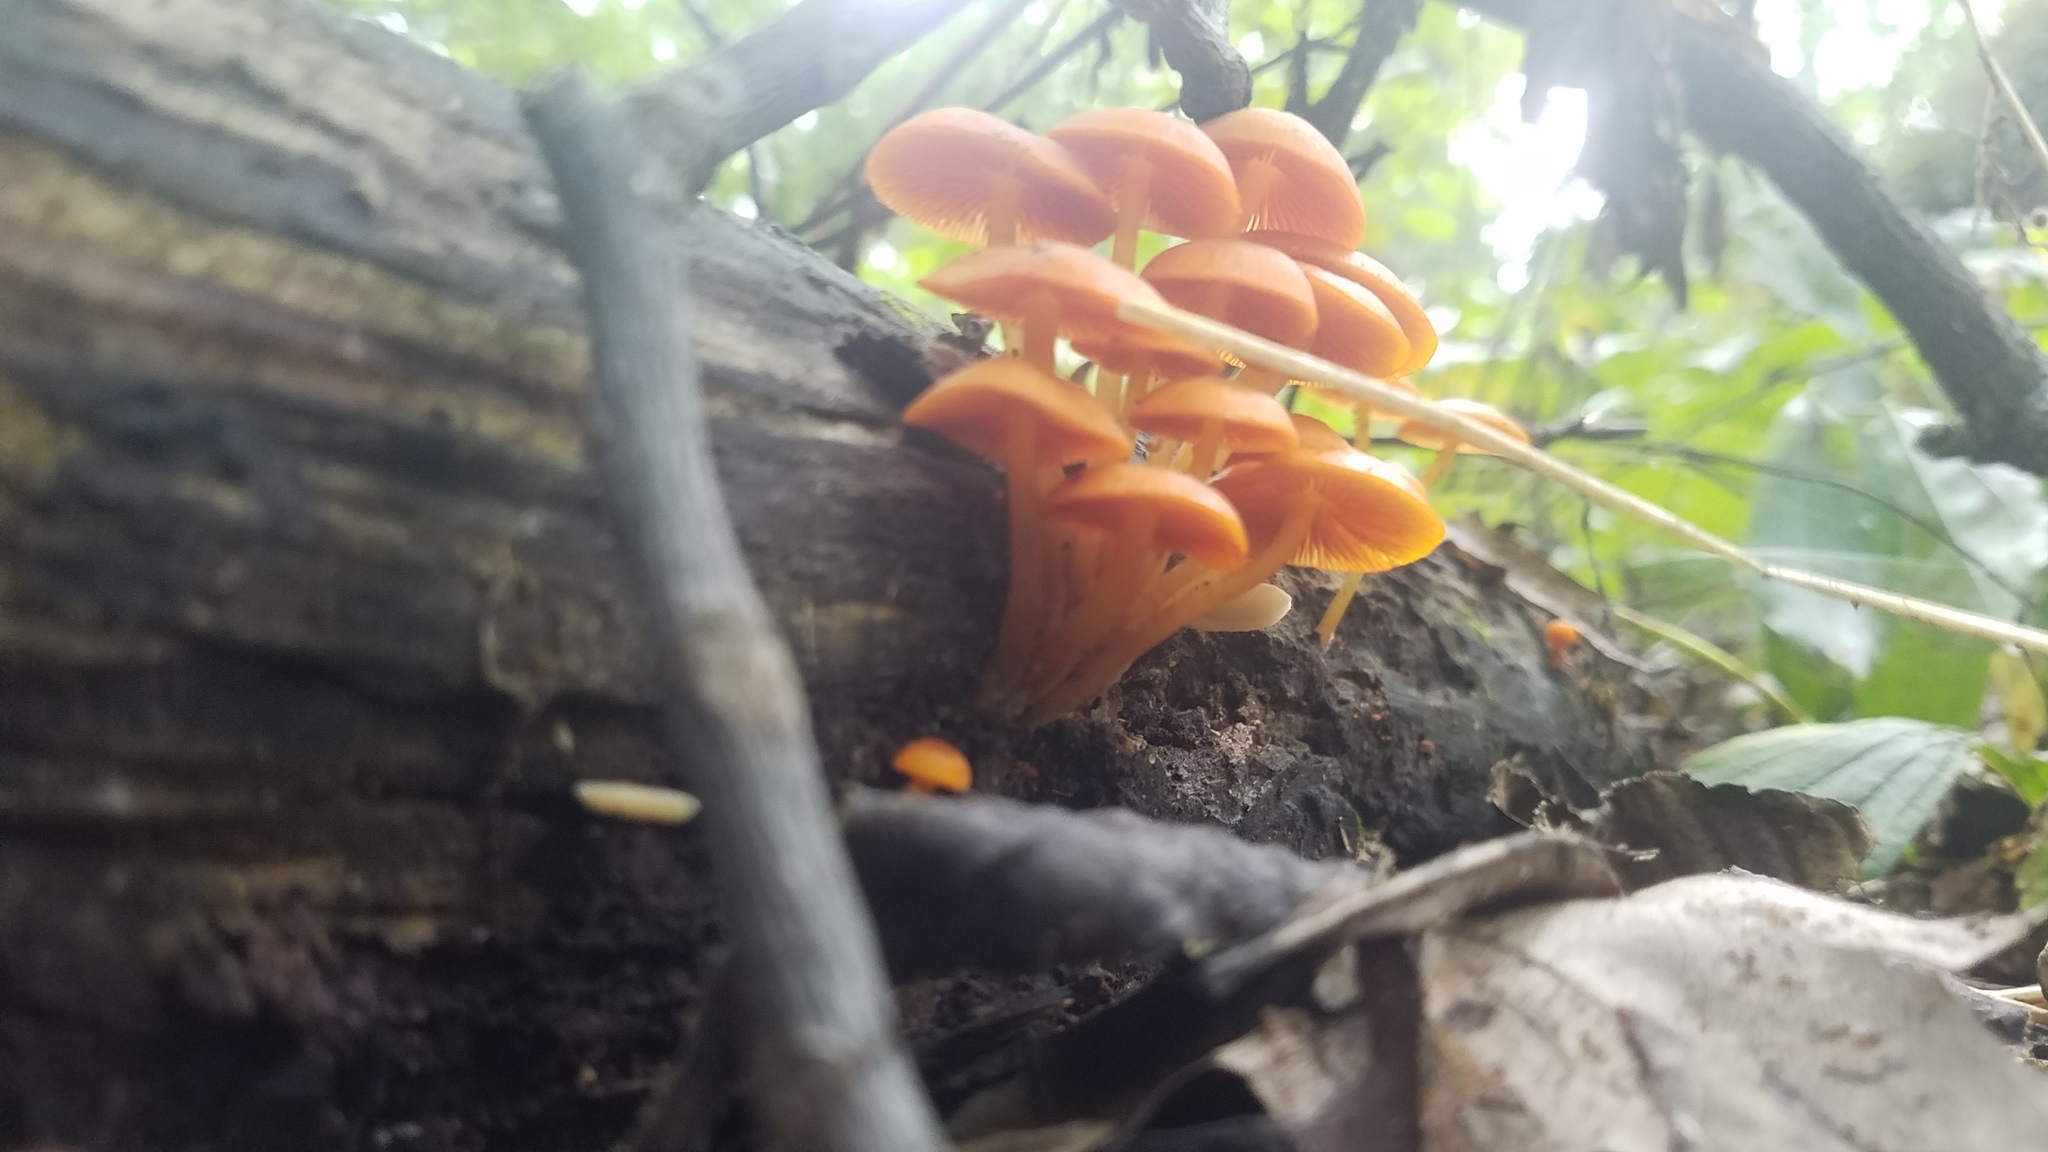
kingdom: Fungi
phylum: Basidiomycota
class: Agaricomycetes
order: Agaricales
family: Mycenaceae
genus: Mycena
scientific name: Mycena leaiana
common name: Orange mycena
